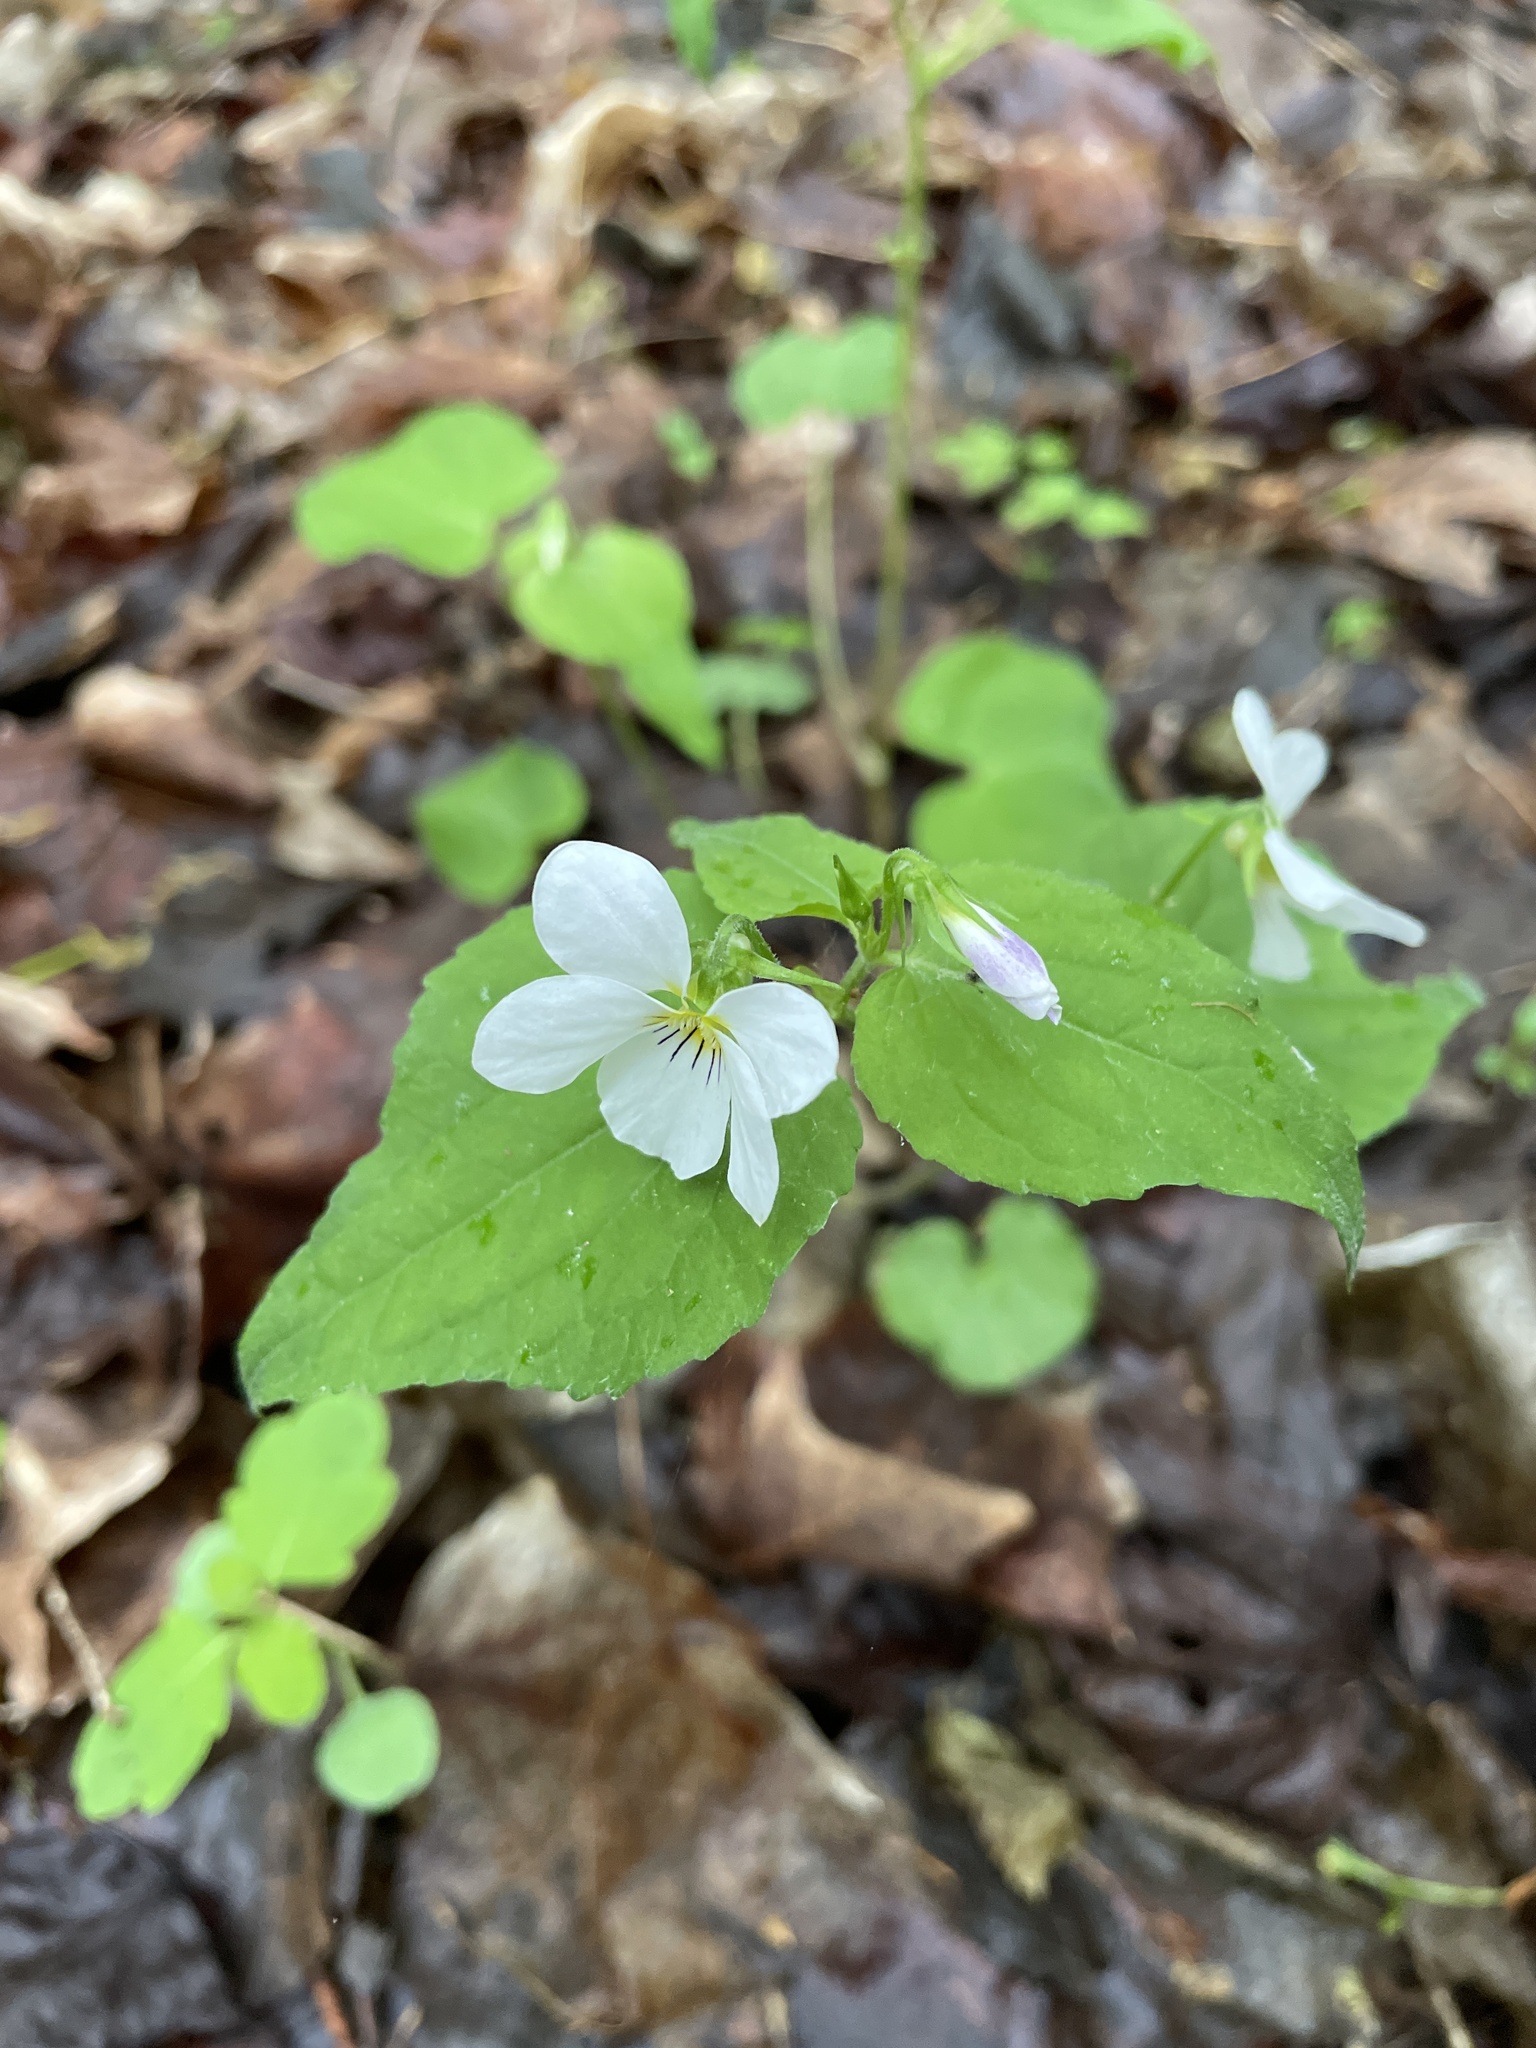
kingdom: Plantae
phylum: Tracheophyta
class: Magnoliopsida
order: Malpighiales
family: Violaceae
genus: Viola
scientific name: Viola canadensis
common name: Canada violet
